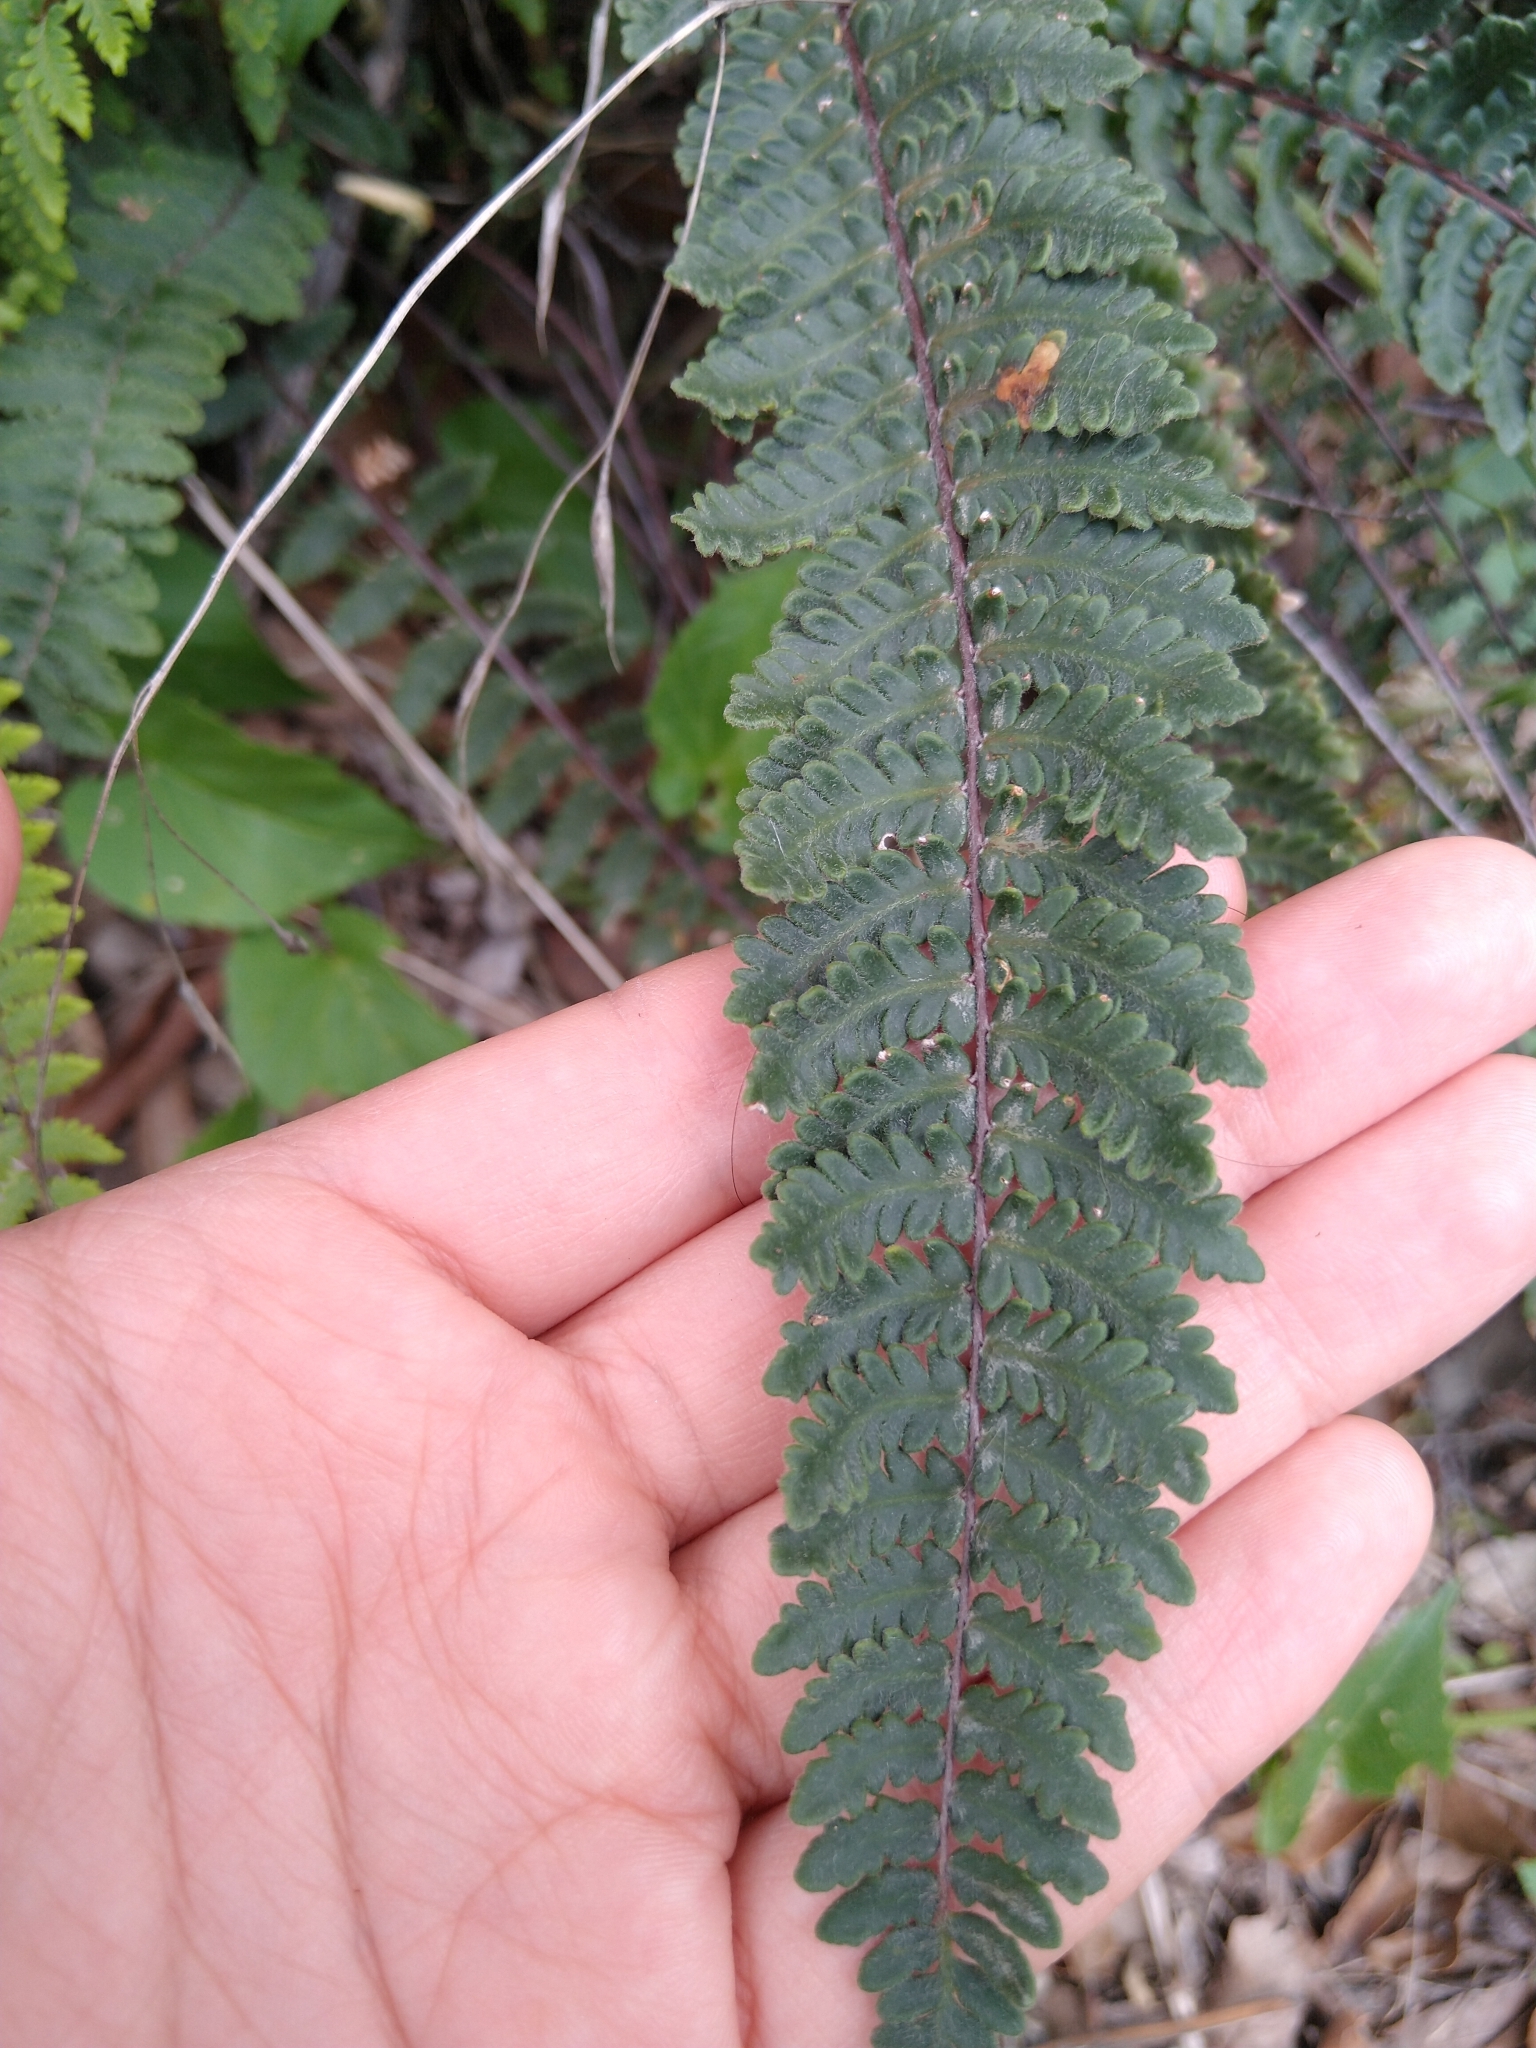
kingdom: Plantae
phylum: Tracheophyta
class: Polypodiopsida
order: Polypodiales
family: Pteridaceae
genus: Myriopteris
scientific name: Myriopteris aurea
